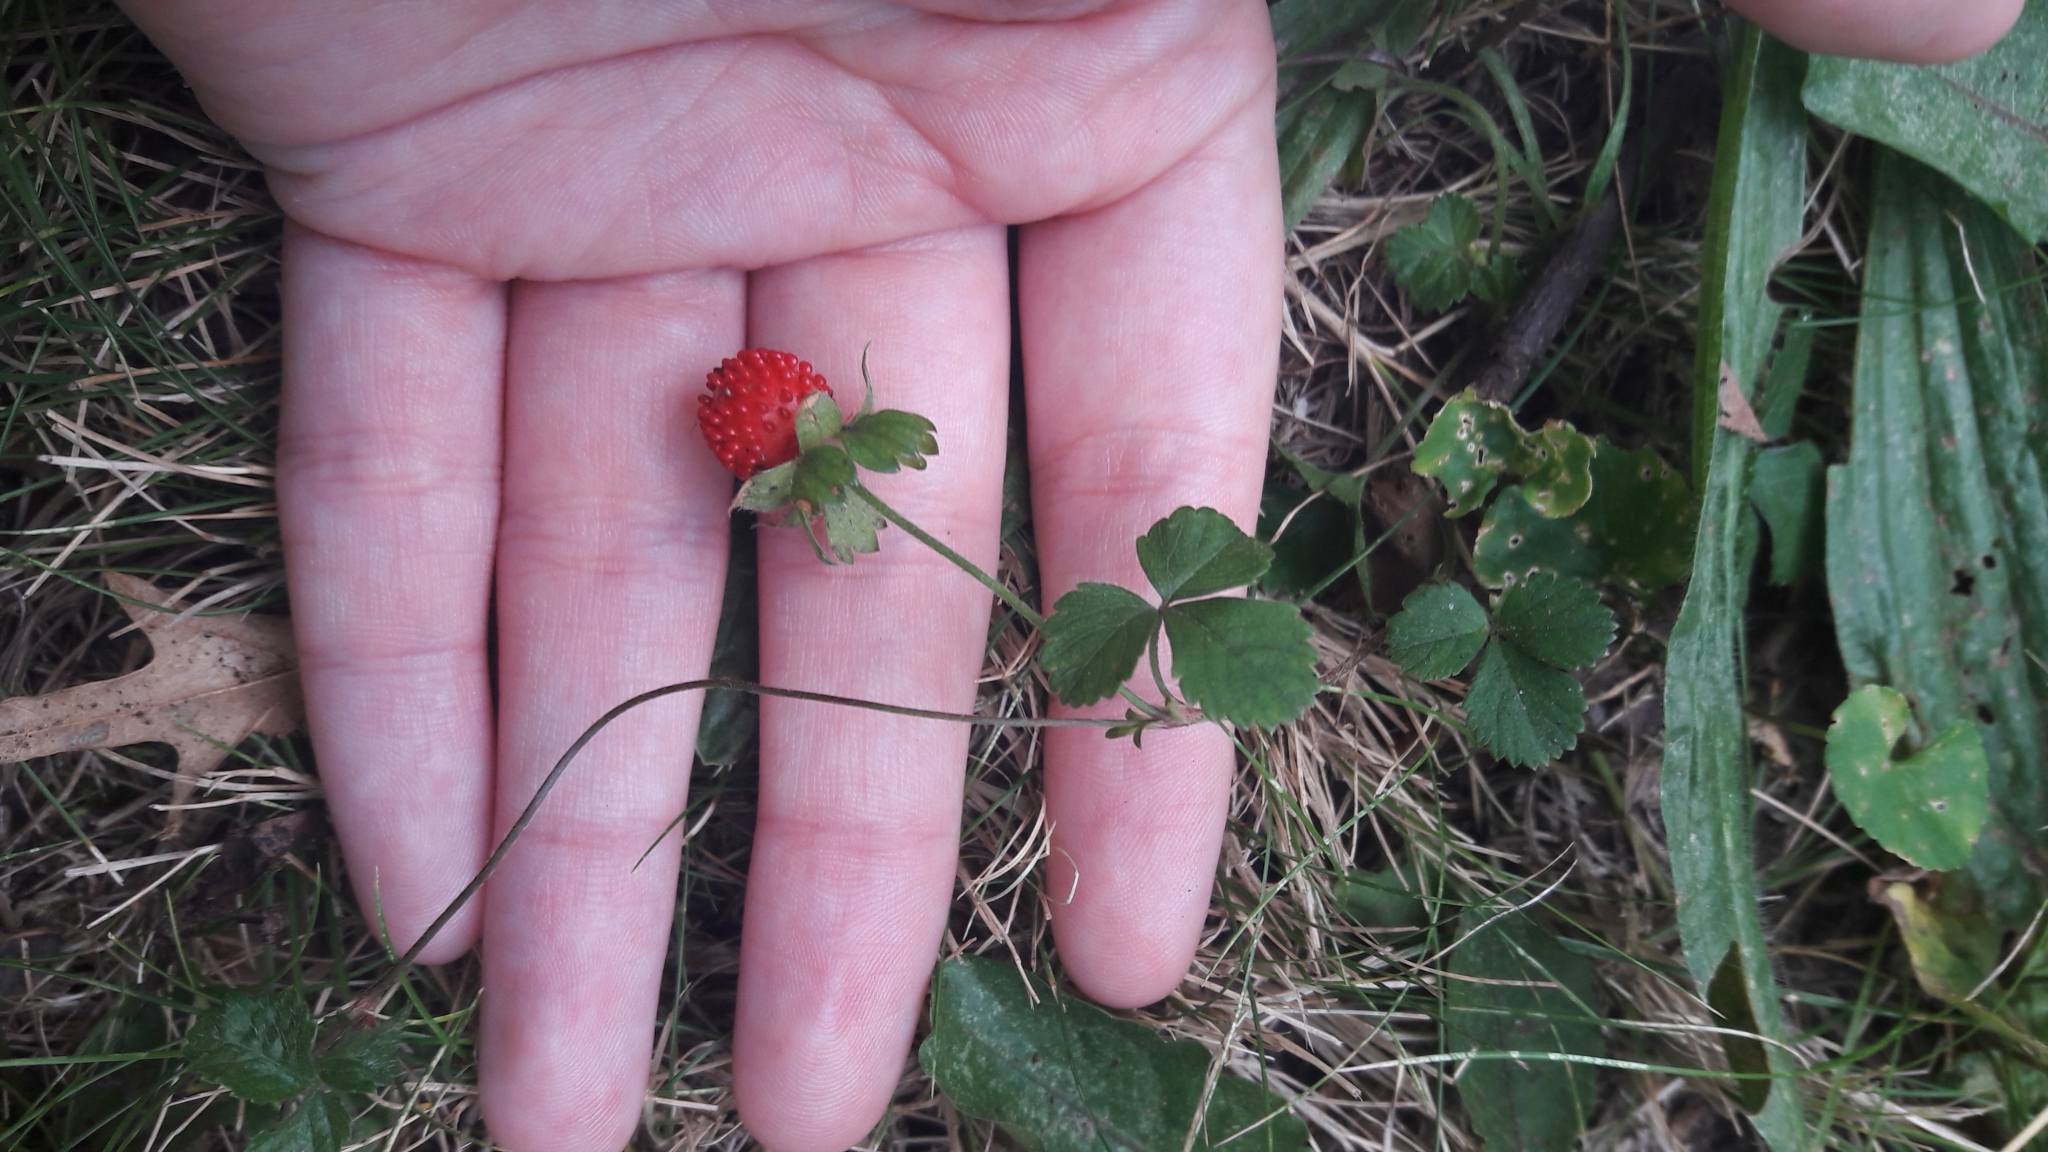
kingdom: Plantae
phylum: Tracheophyta
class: Magnoliopsida
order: Rosales
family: Rosaceae
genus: Potentilla
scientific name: Potentilla indica
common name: Yellow-flowered strawberry
